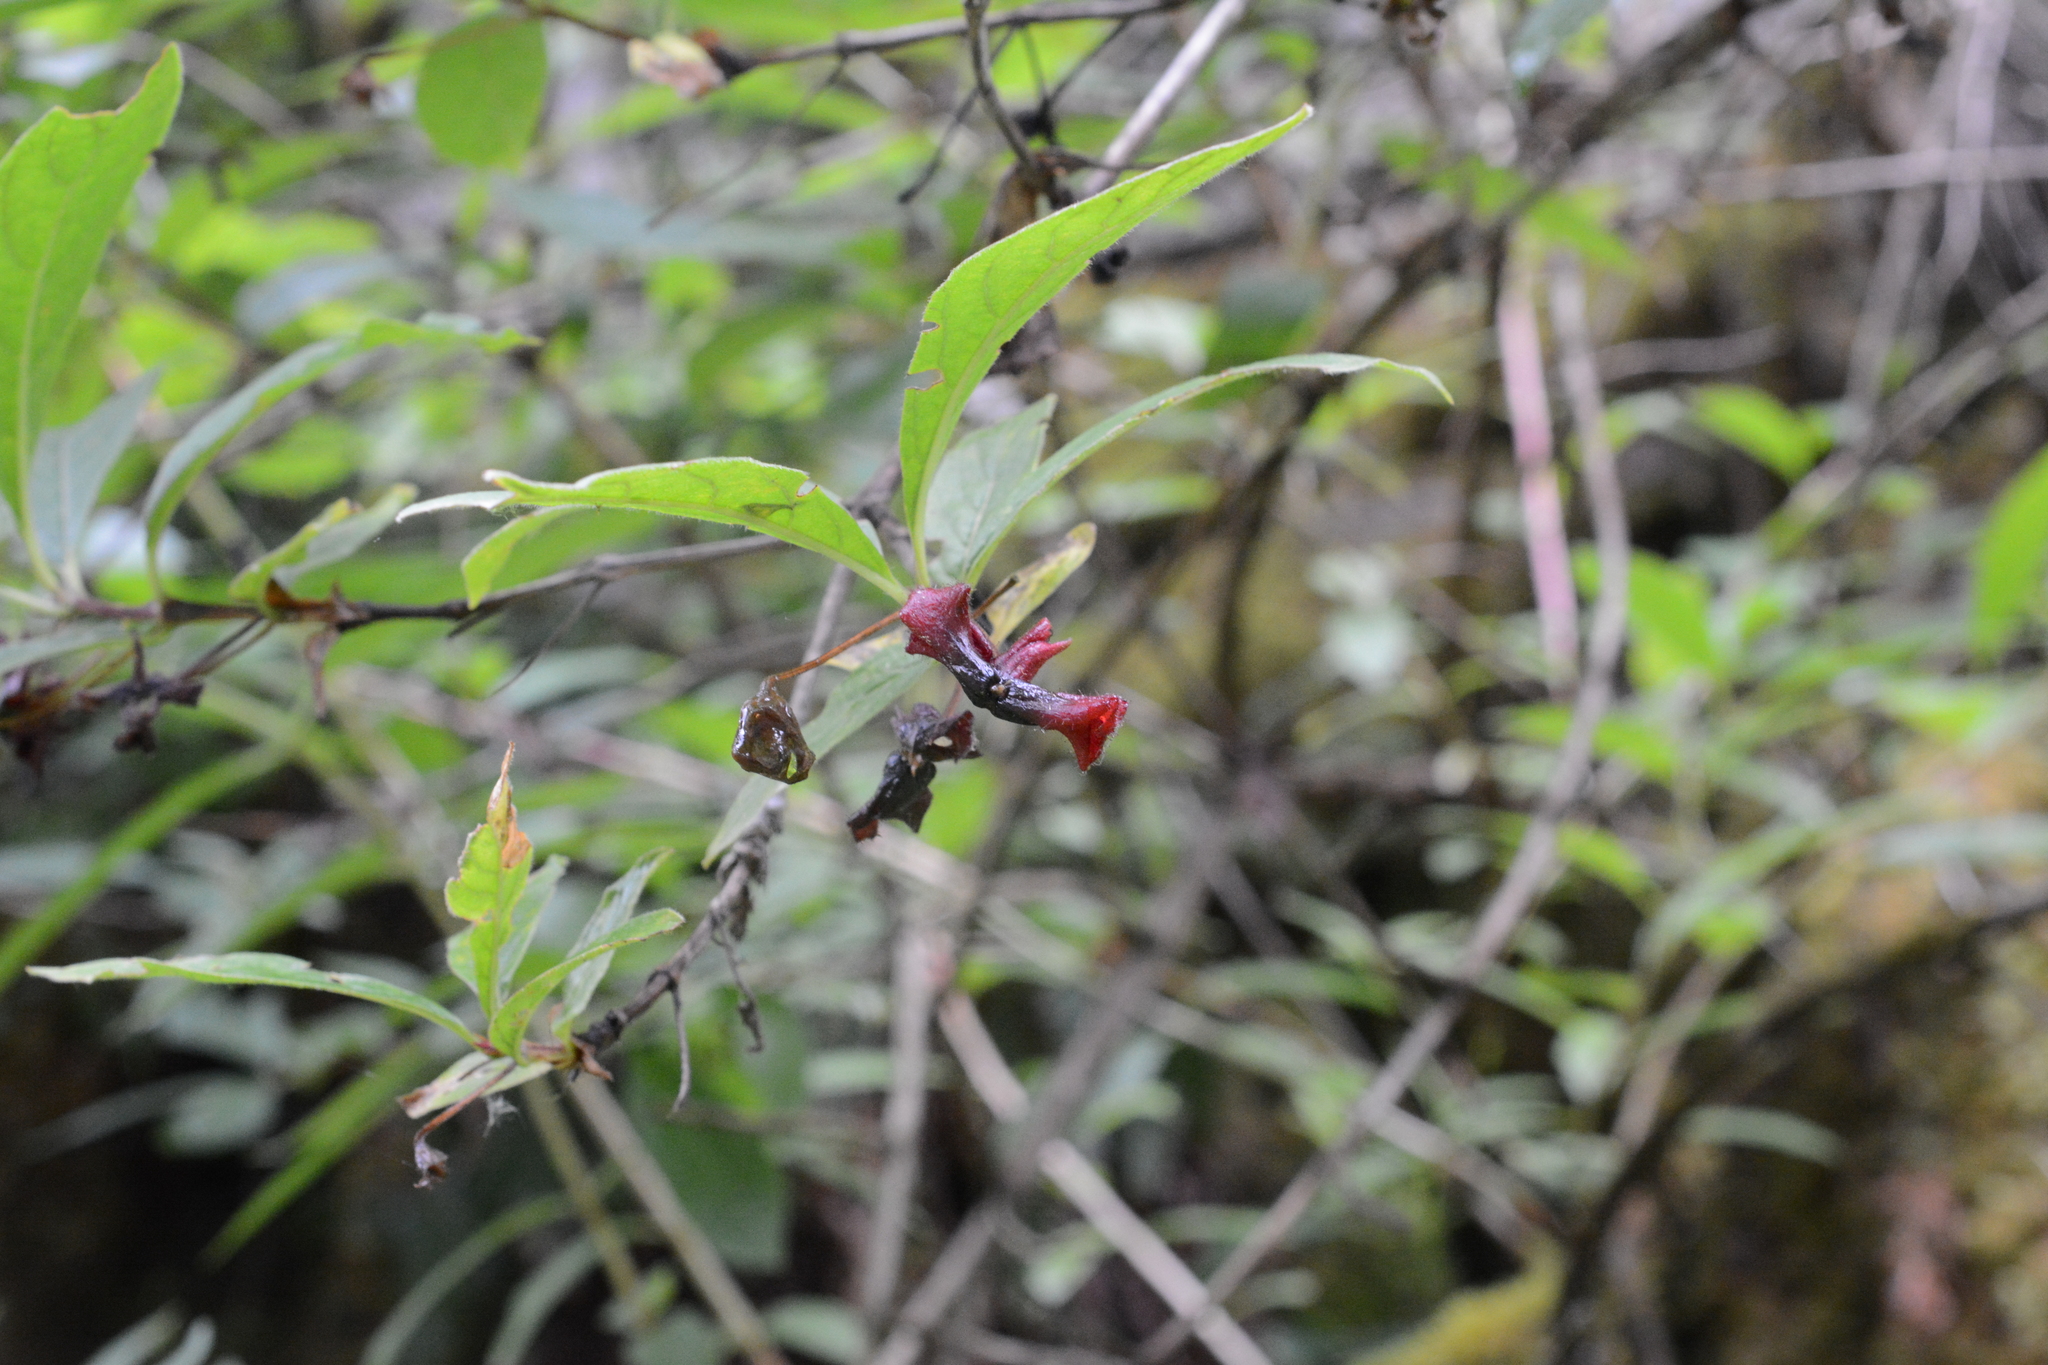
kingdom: Plantae
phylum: Tracheophyta
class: Magnoliopsida
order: Dipsacales
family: Caprifoliaceae
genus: Lonicera
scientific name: Lonicera involucrata
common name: Californian honeysuckle
